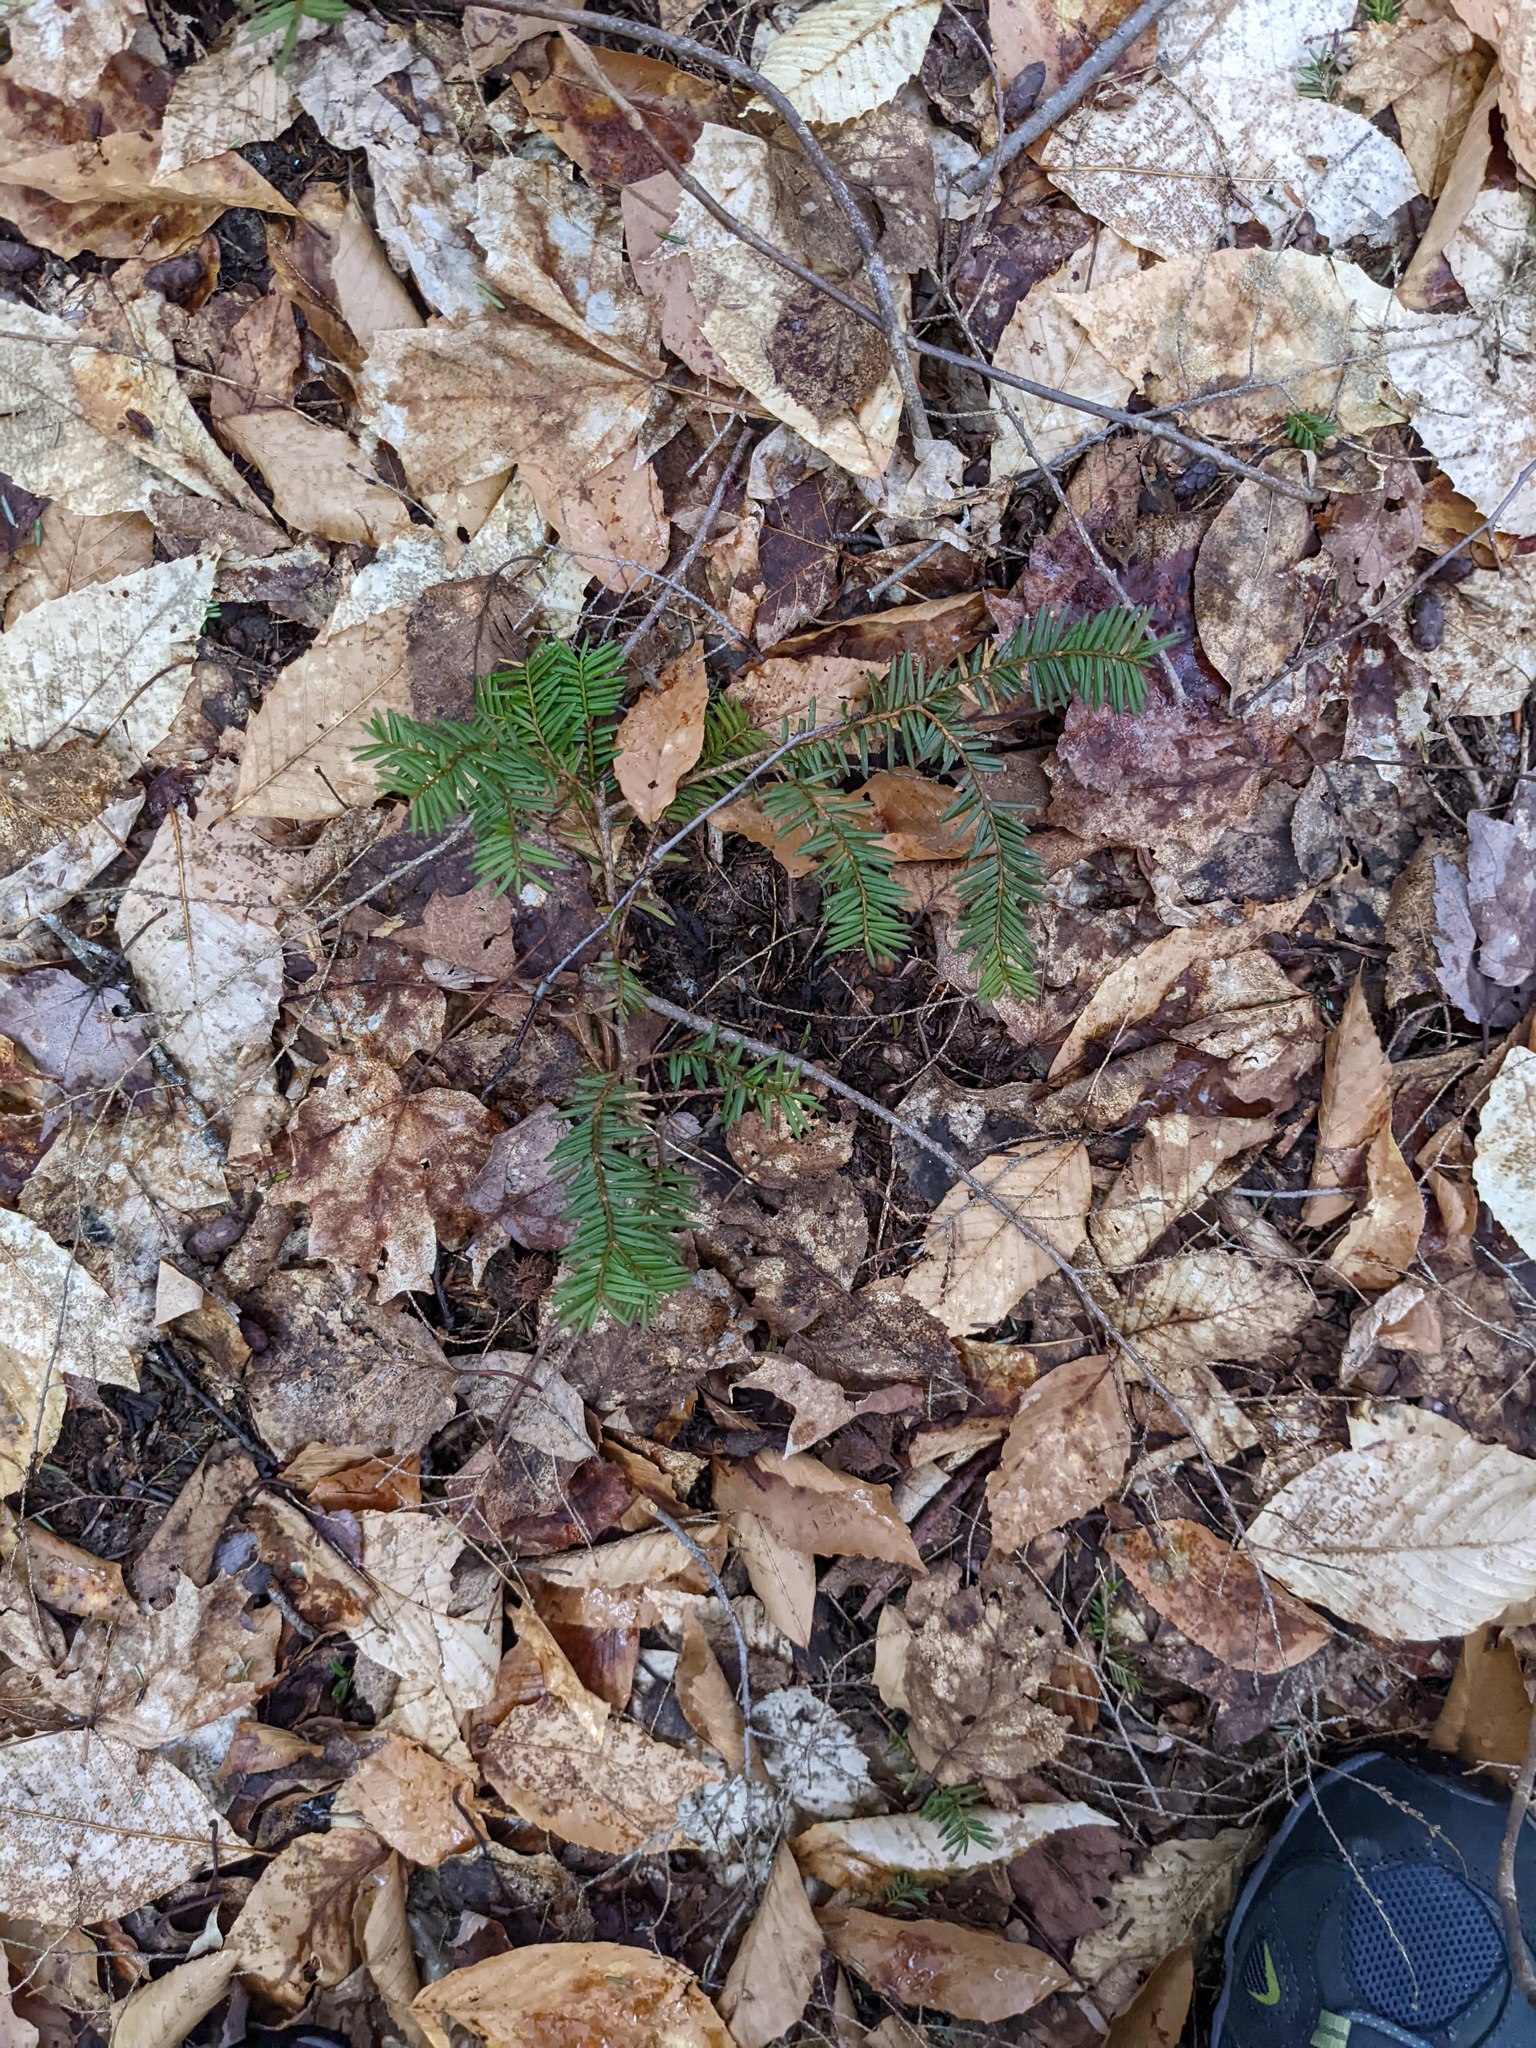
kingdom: Plantae
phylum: Tracheophyta
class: Magnoliopsida
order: Fagales
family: Fagaceae
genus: Fagus
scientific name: Fagus grandifolia
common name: American beech
